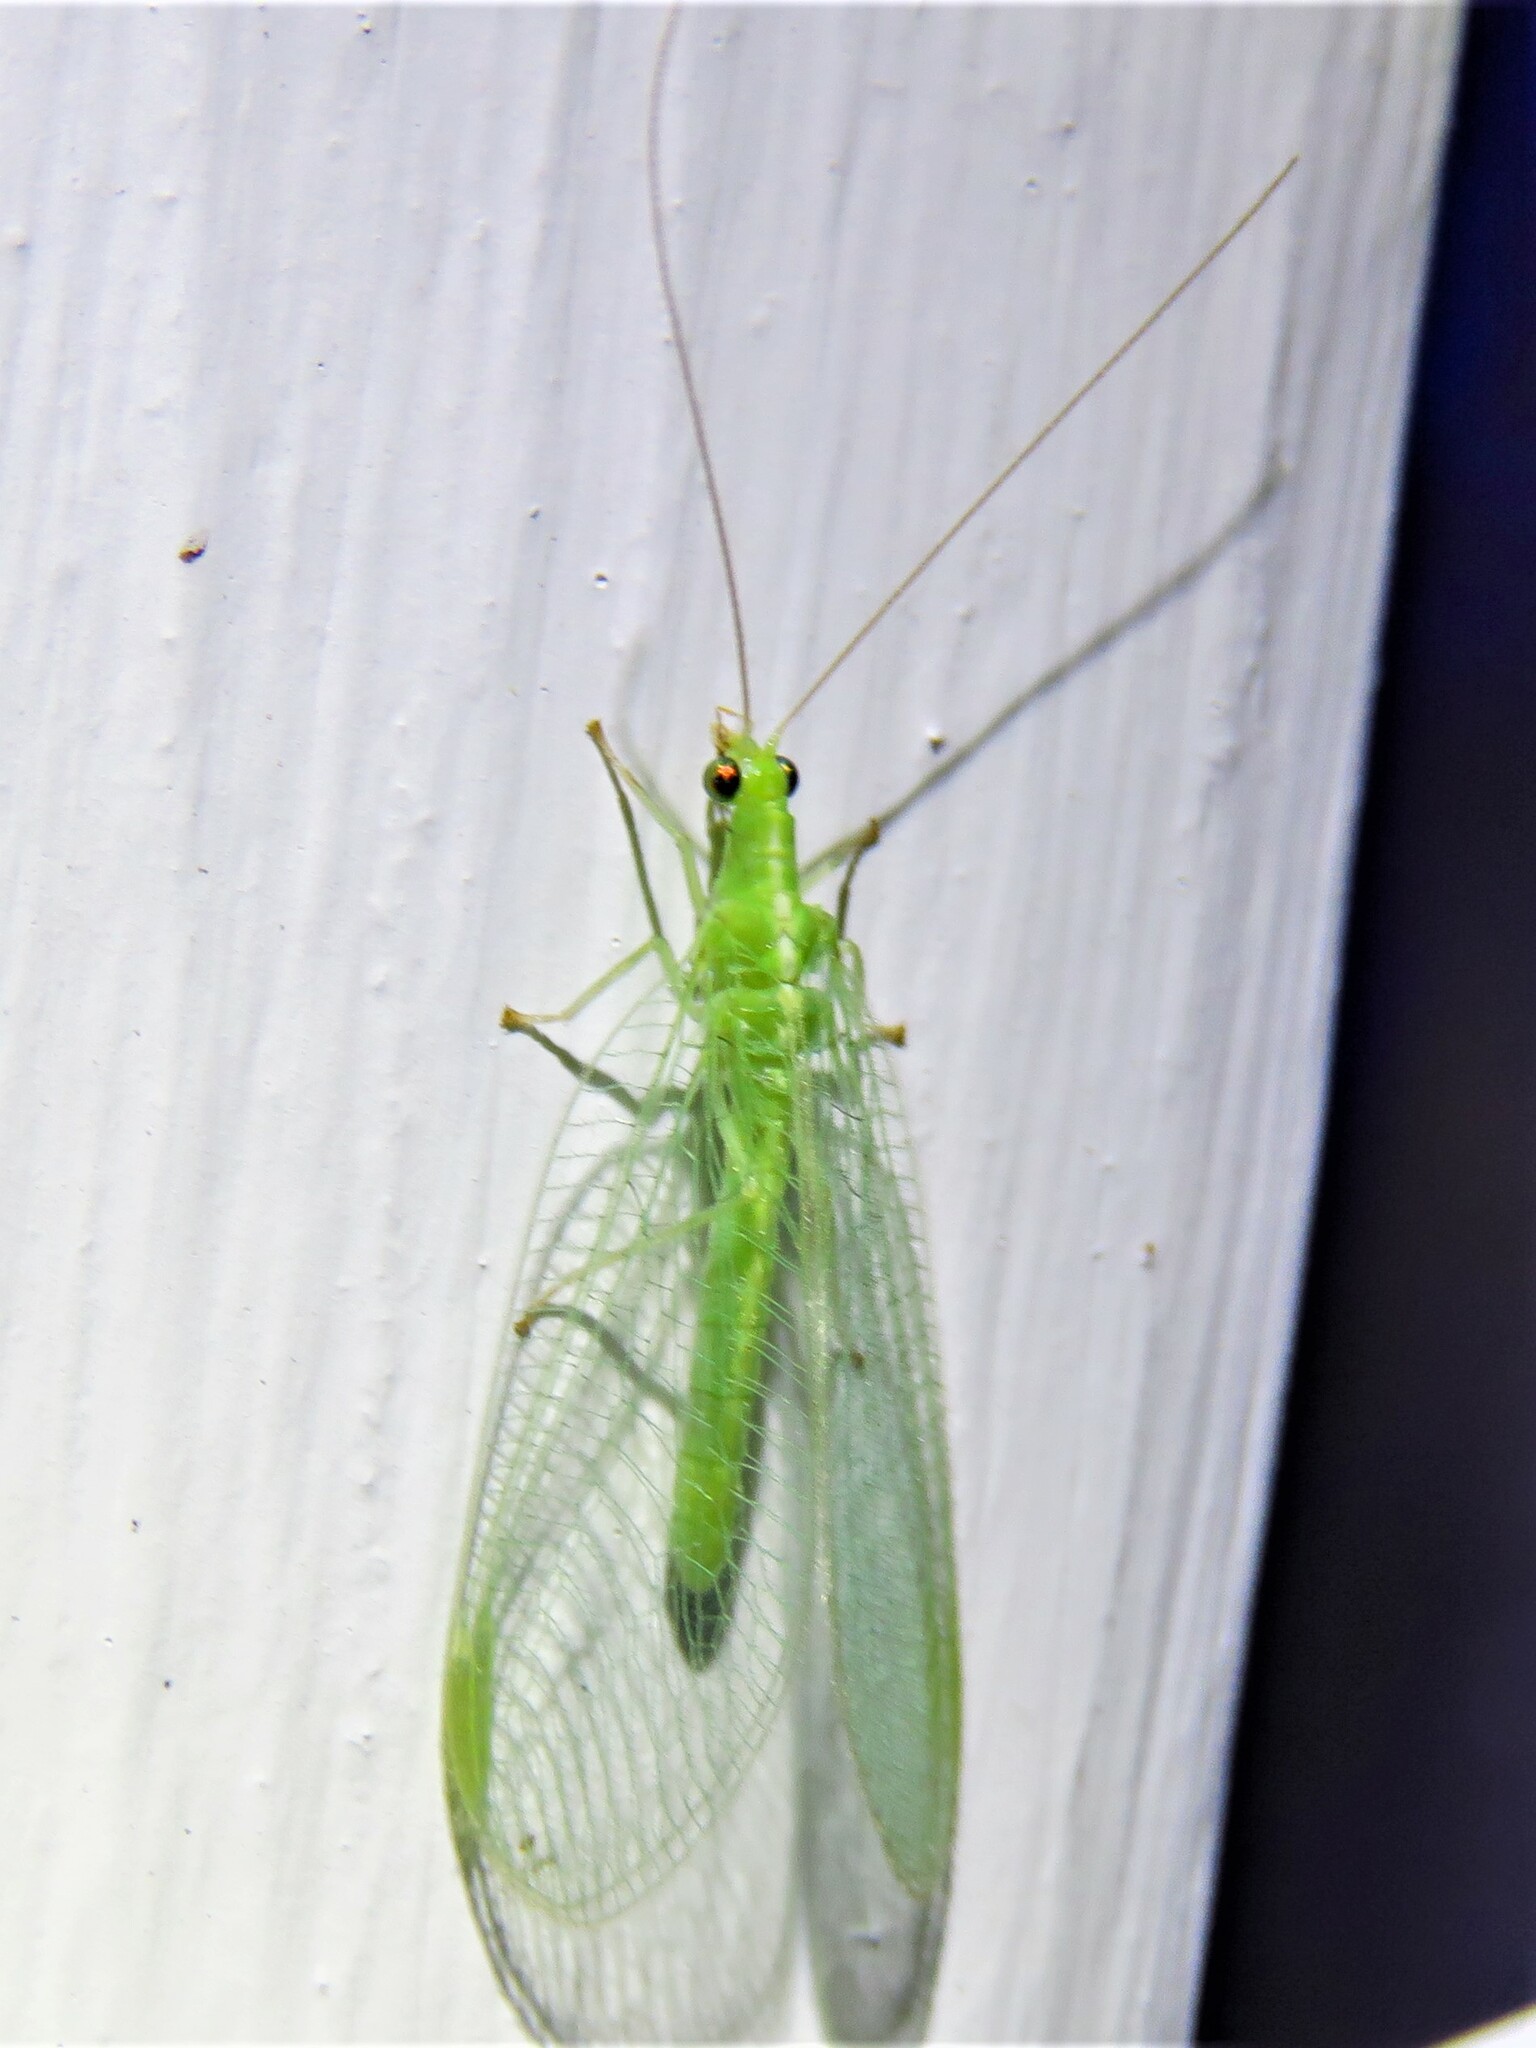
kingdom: Animalia
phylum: Arthropoda
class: Insecta
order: Neuroptera
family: Chrysopidae
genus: Chrysoperla
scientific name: Chrysoperla
